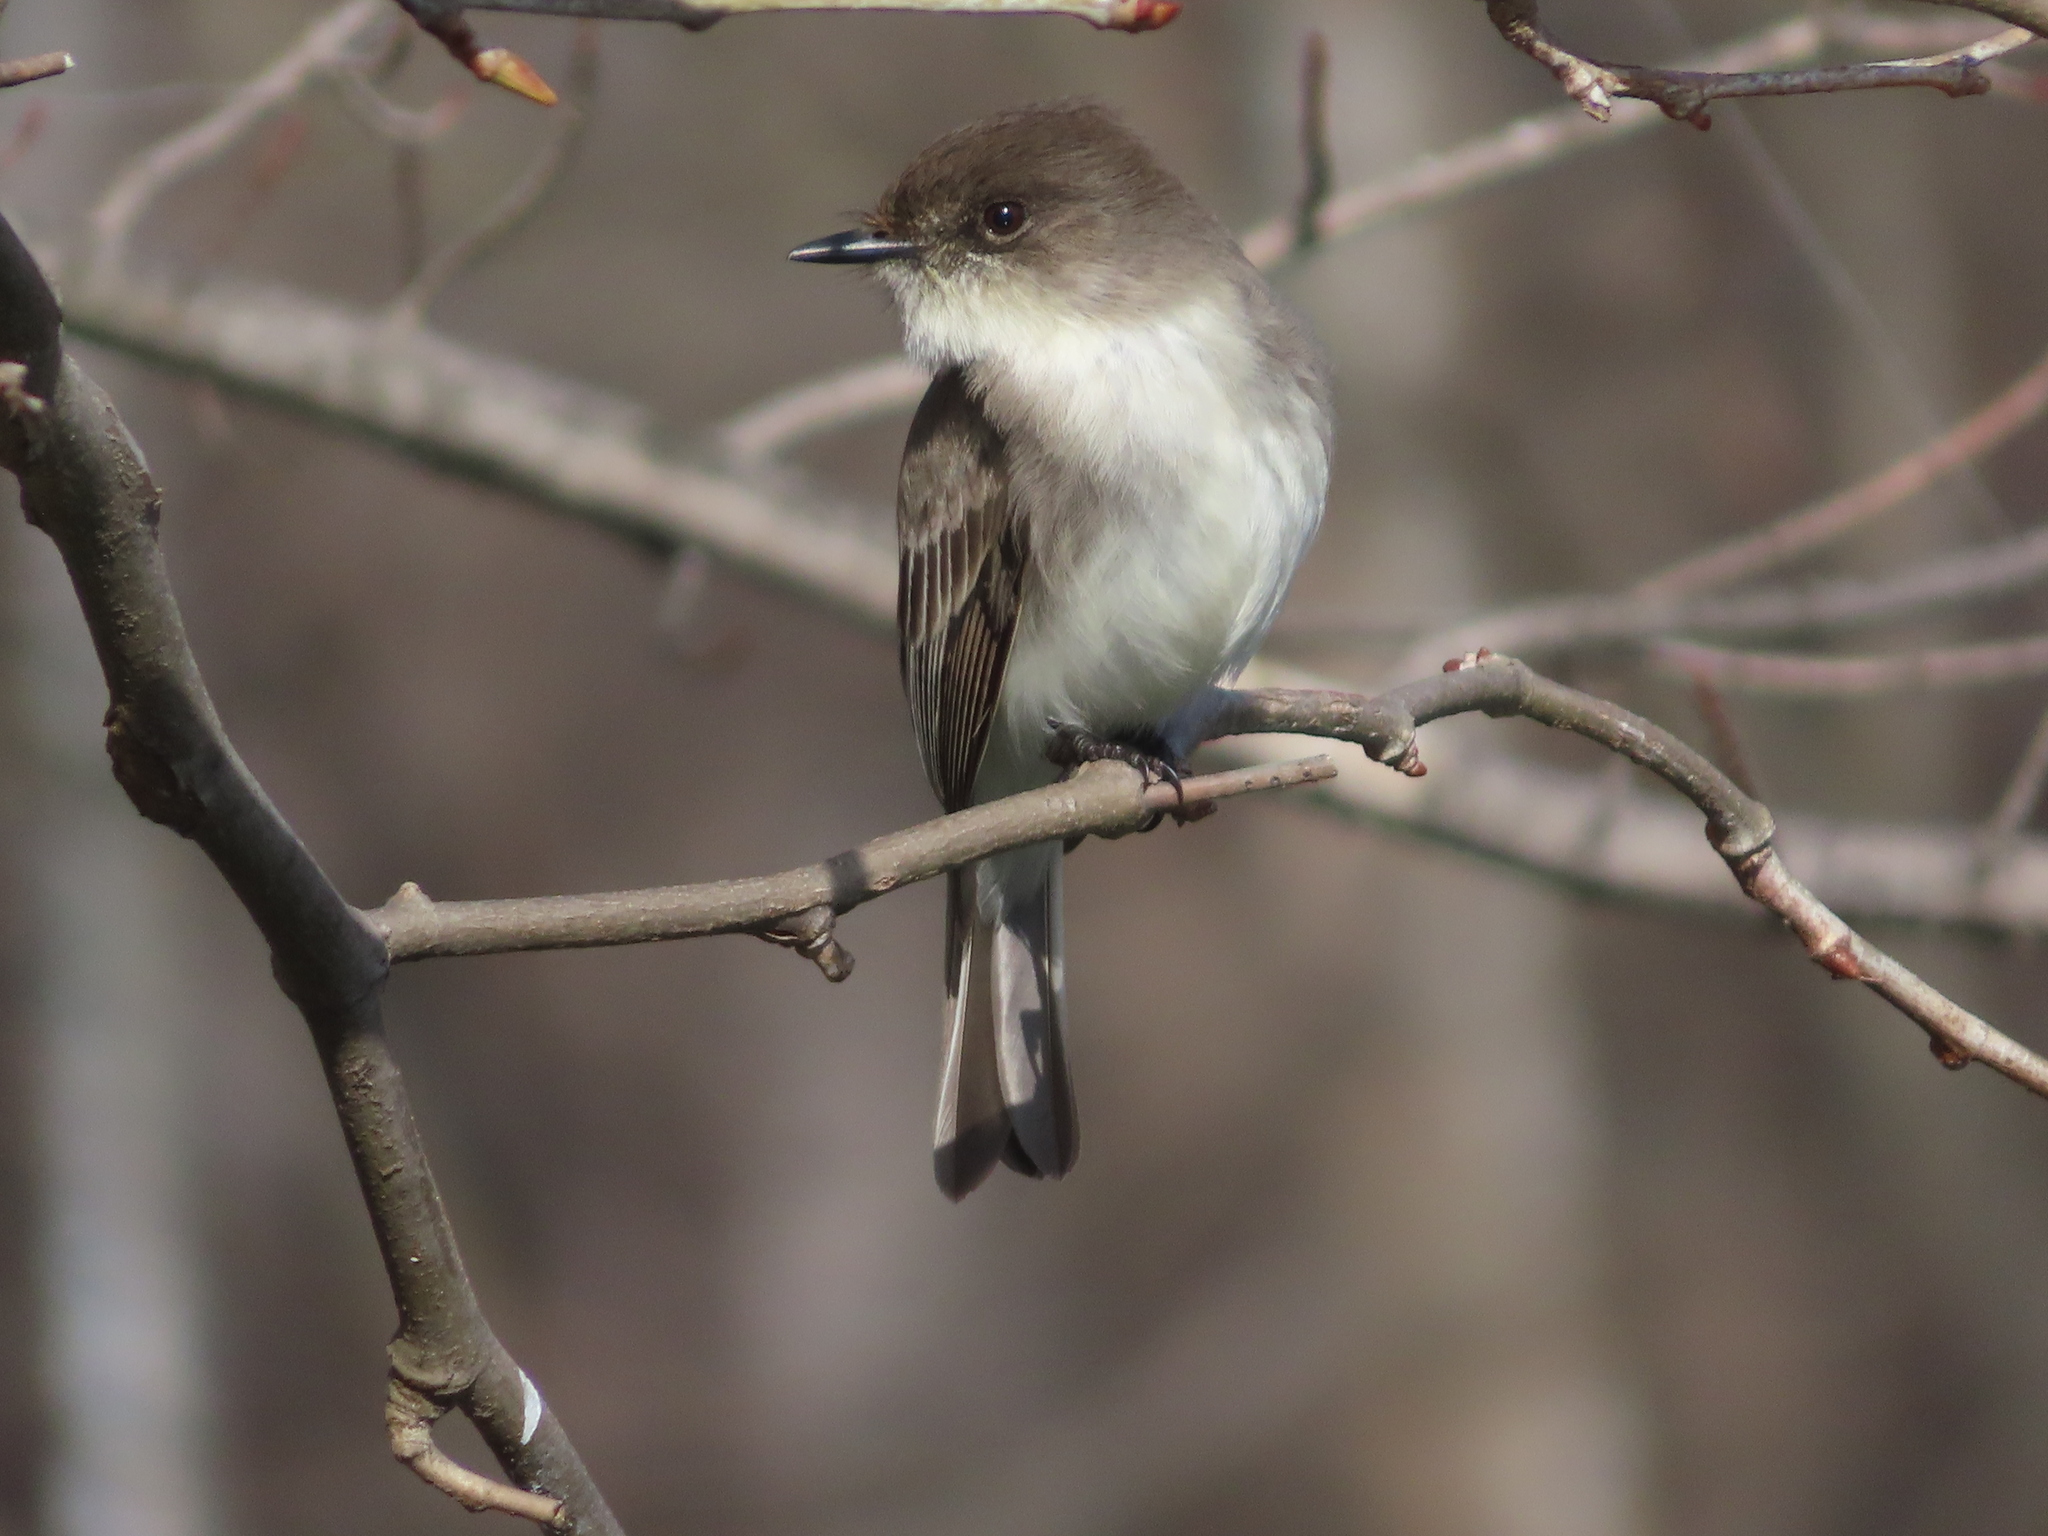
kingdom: Animalia
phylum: Chordata
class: Aves
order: Passeriformes
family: Tyrannidae
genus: Sayornis
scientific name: Sayornis phoebe
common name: Eastern phoebe
